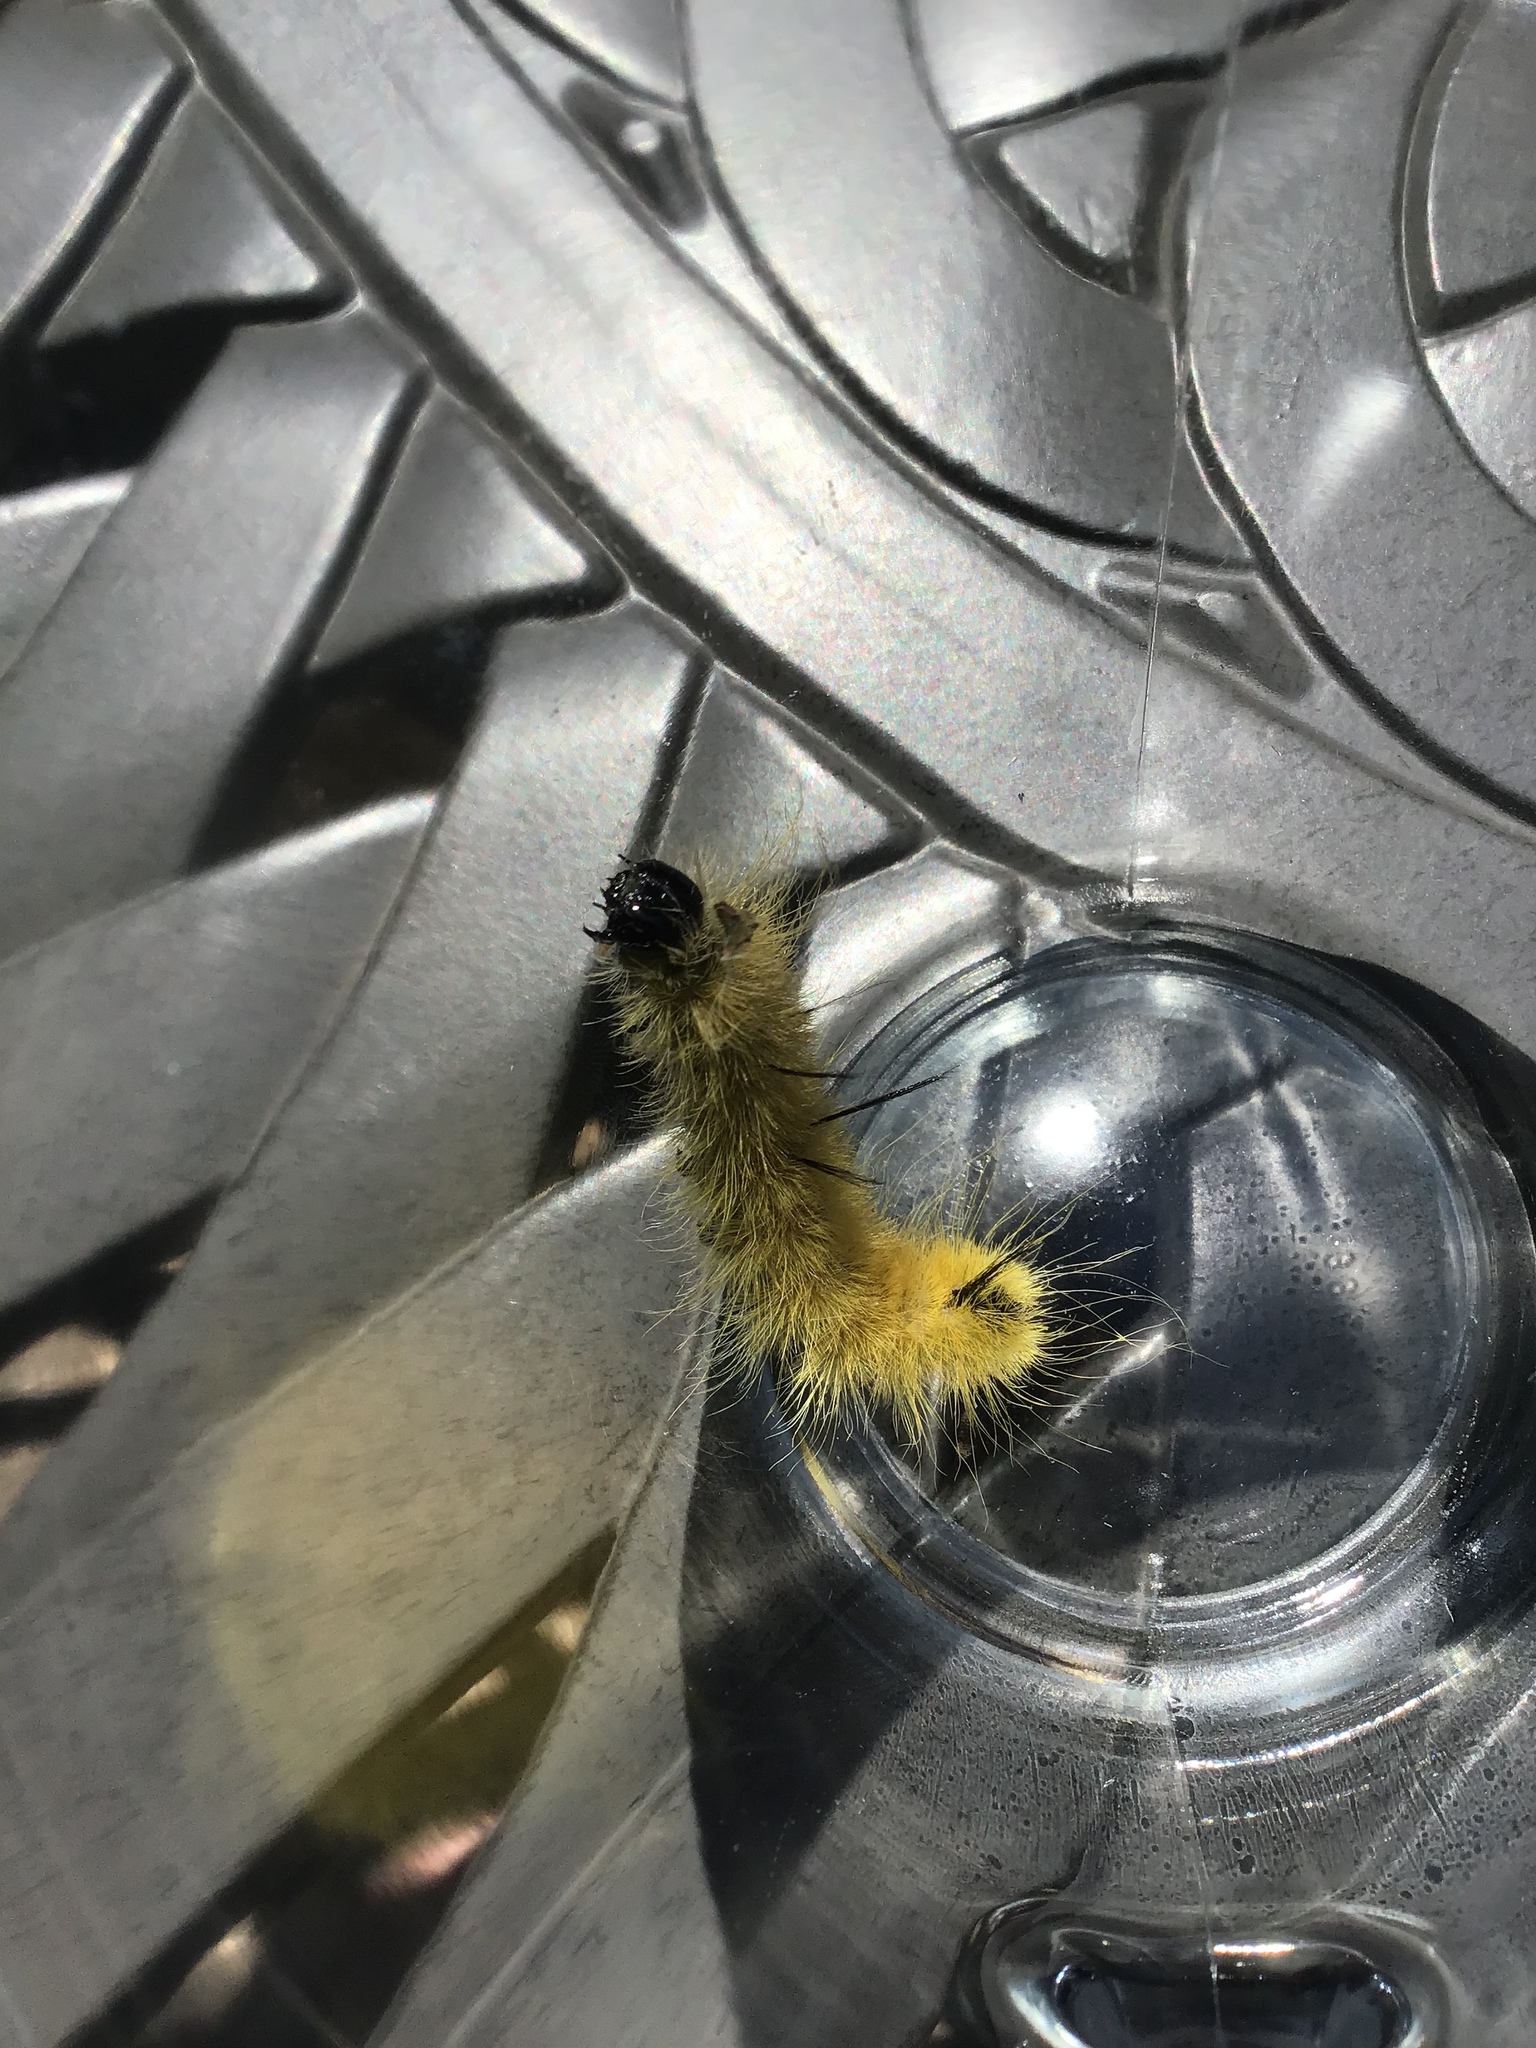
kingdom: Animalia
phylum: Arthropoda
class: Insecta
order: Lepidoptera
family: Noctuidae
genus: Acronicta
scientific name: Acronicta americana
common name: American dagger
